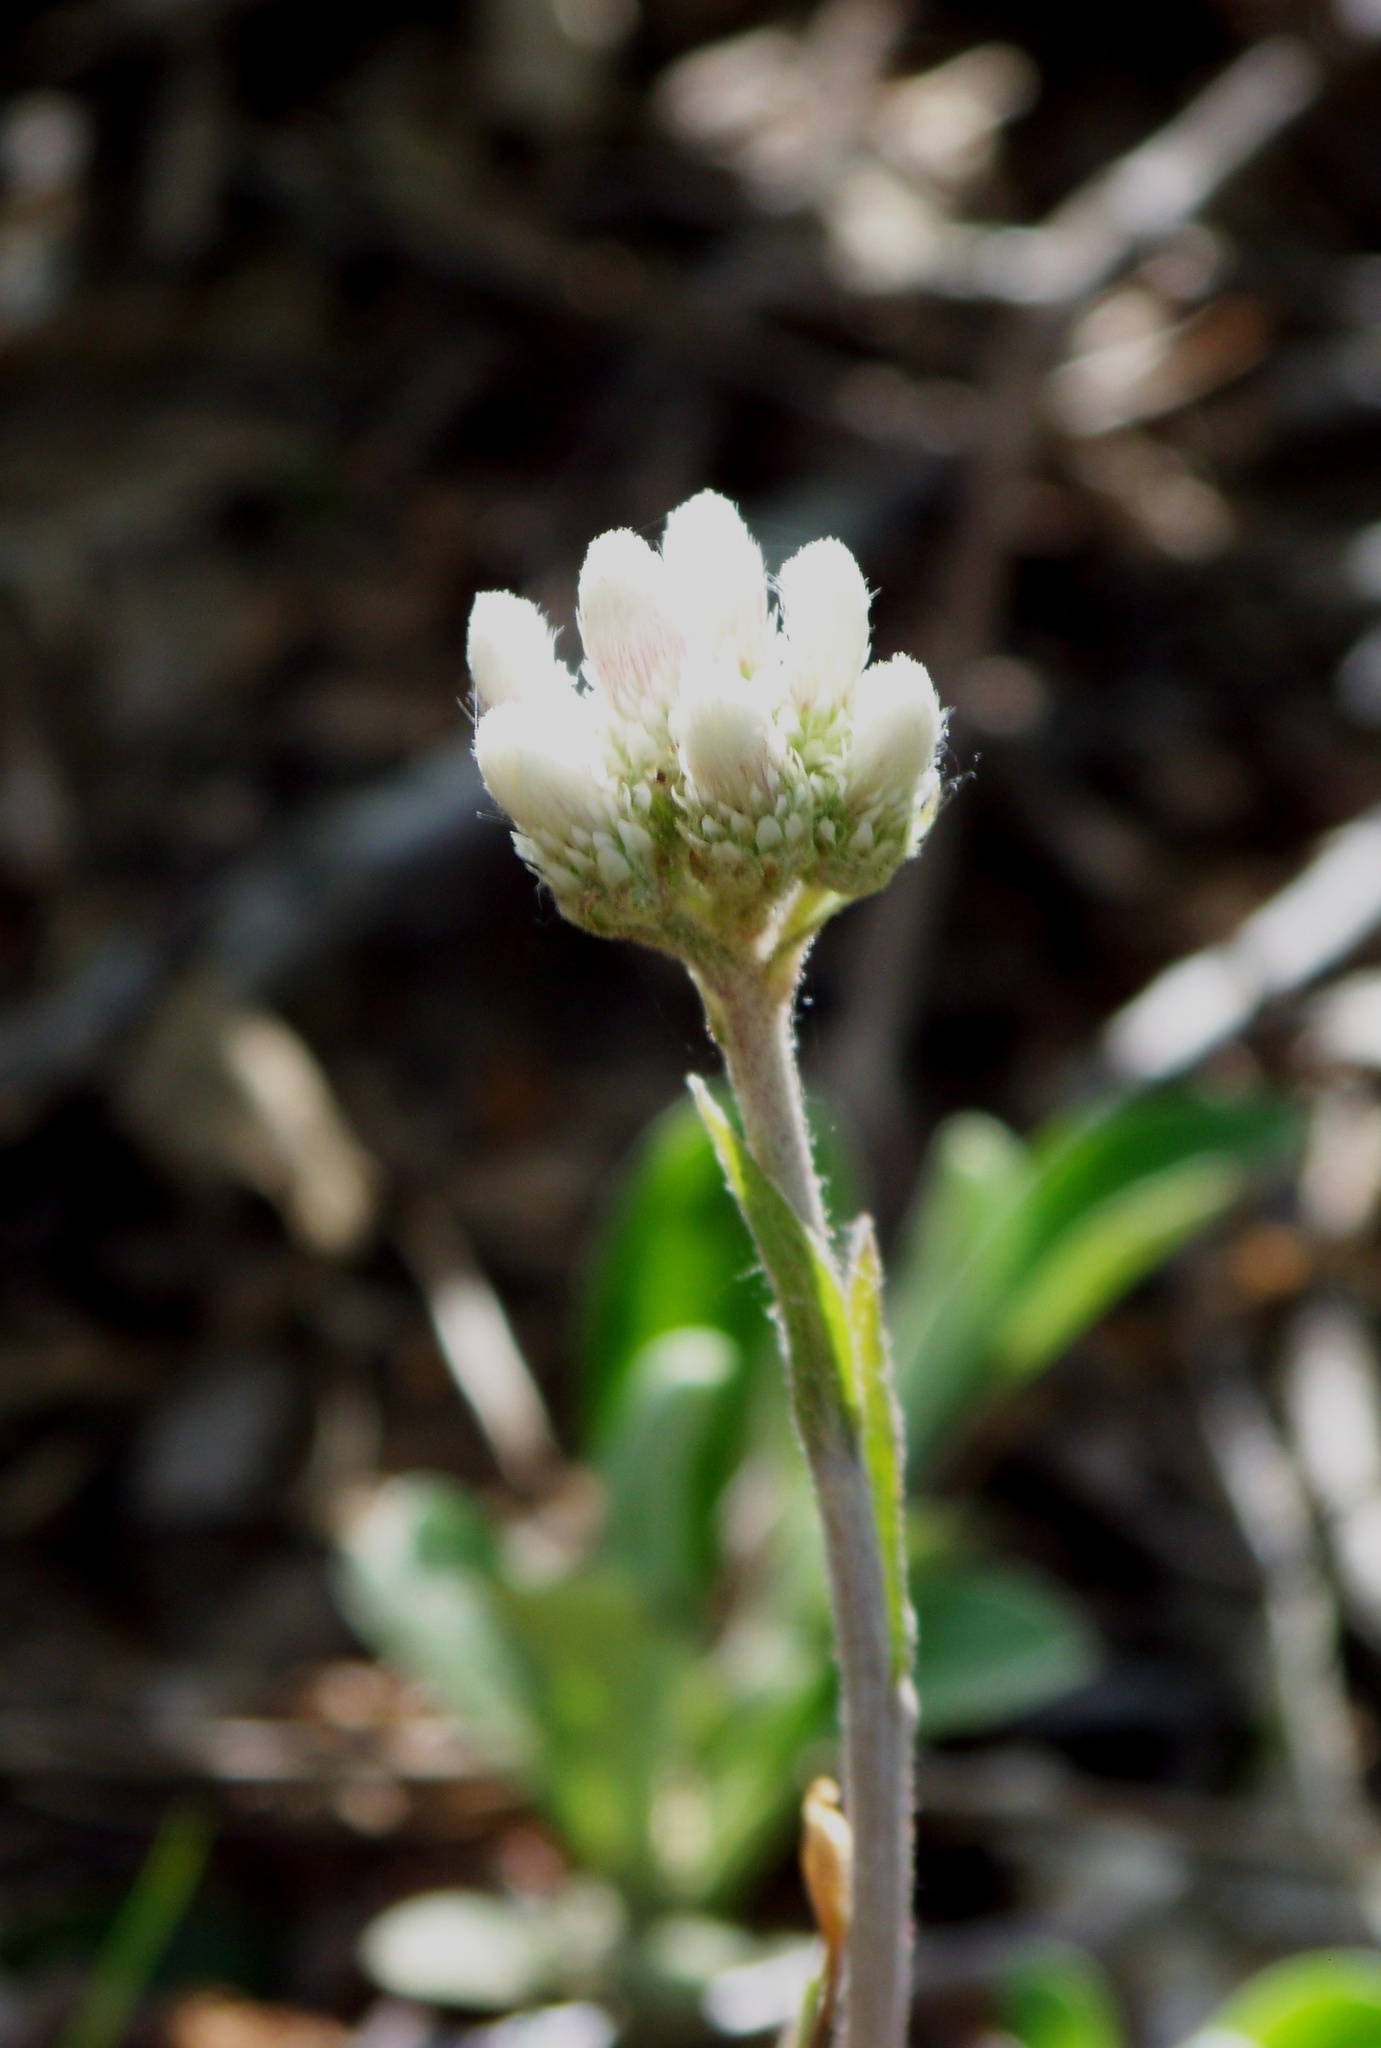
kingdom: Plantae
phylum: Tracheophyta
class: Magnoliopsida
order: Asterales
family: Asteraceae
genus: Antennaria
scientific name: Antennaria plantaginifolia
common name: Plantain-leaved pussytoes
